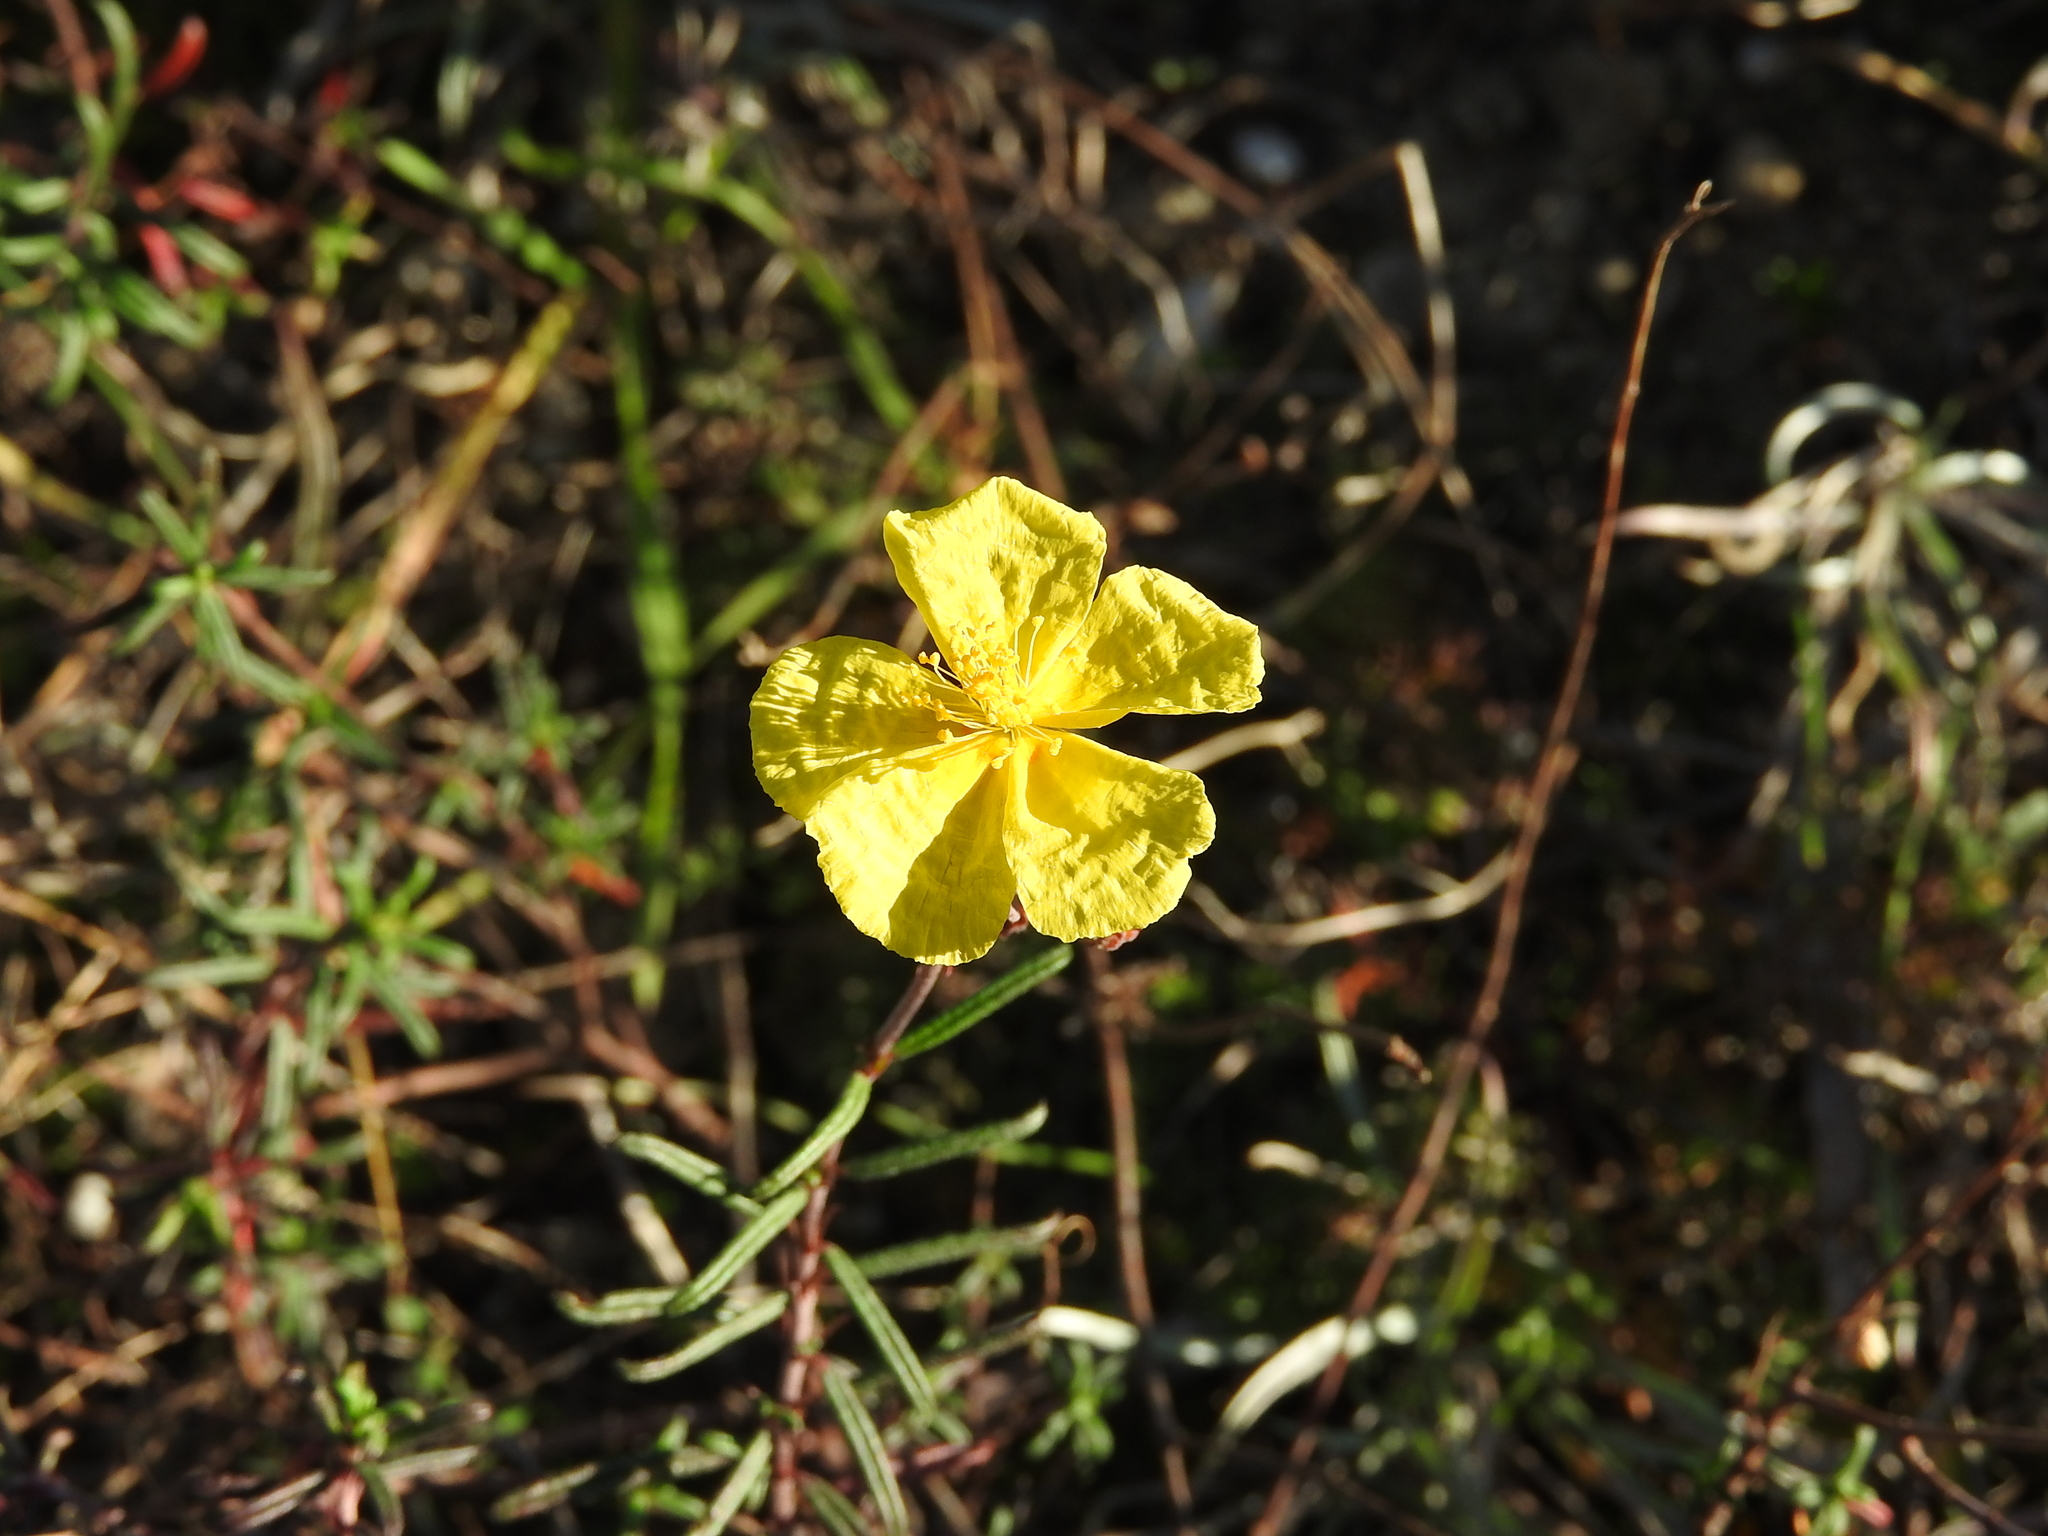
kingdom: Plantae
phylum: Tracheophyta
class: Magnoliopsida
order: Malvales
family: Cistaceae
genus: Helianthemum
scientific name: Helianthemum leptophyllum
